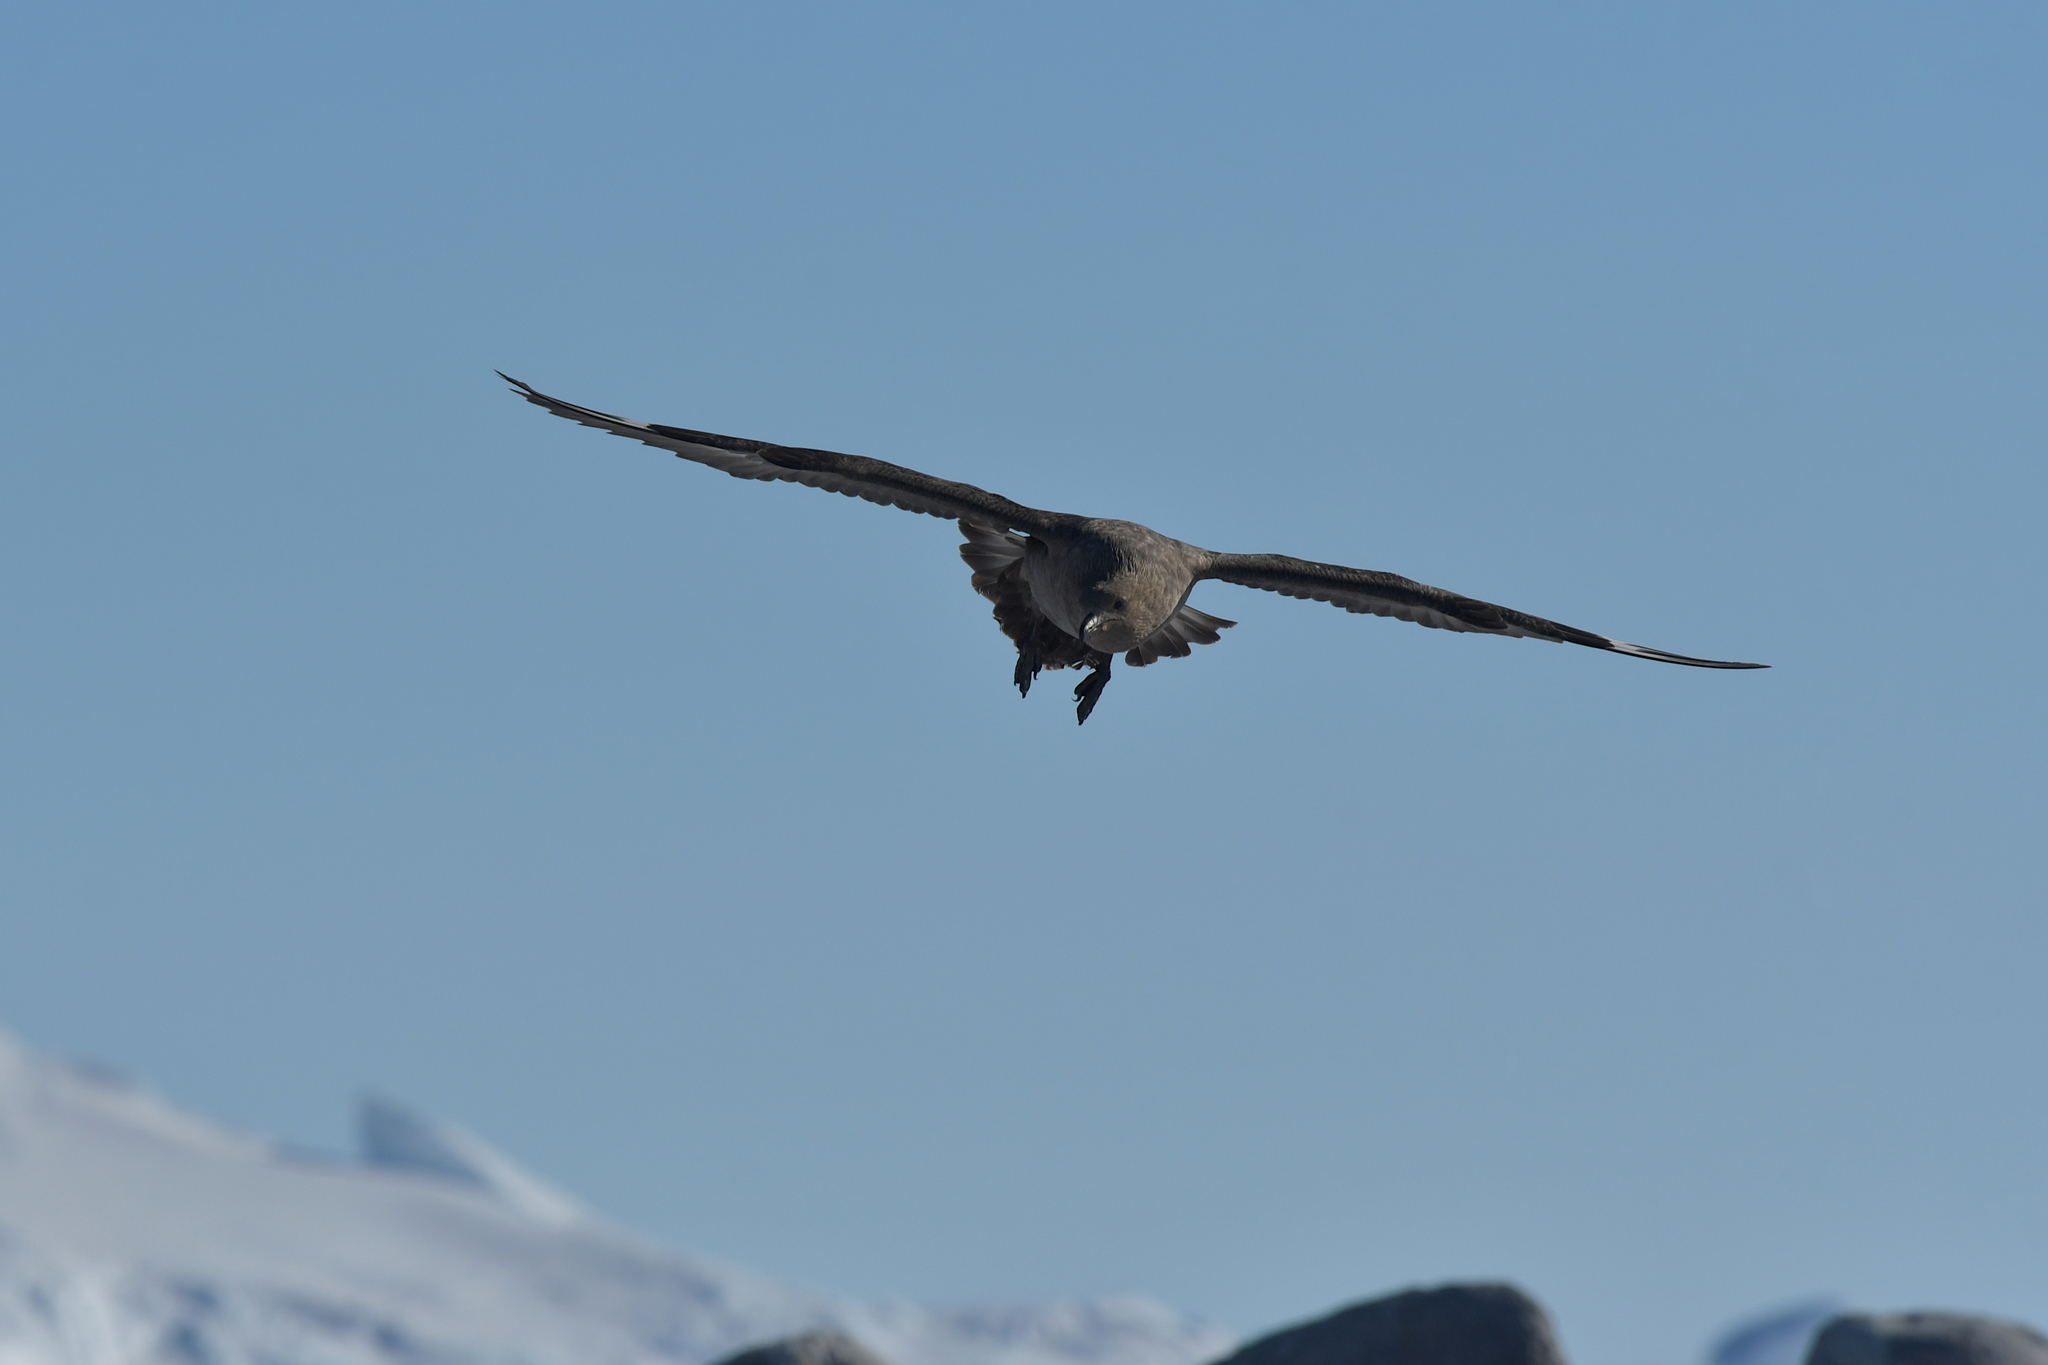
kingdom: Animalia
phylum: Chordata
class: Aves
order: Charadriiformes
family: Stercorariidae
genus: Stercorarius
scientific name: Stercorarius maccormicki
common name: South polar skua
